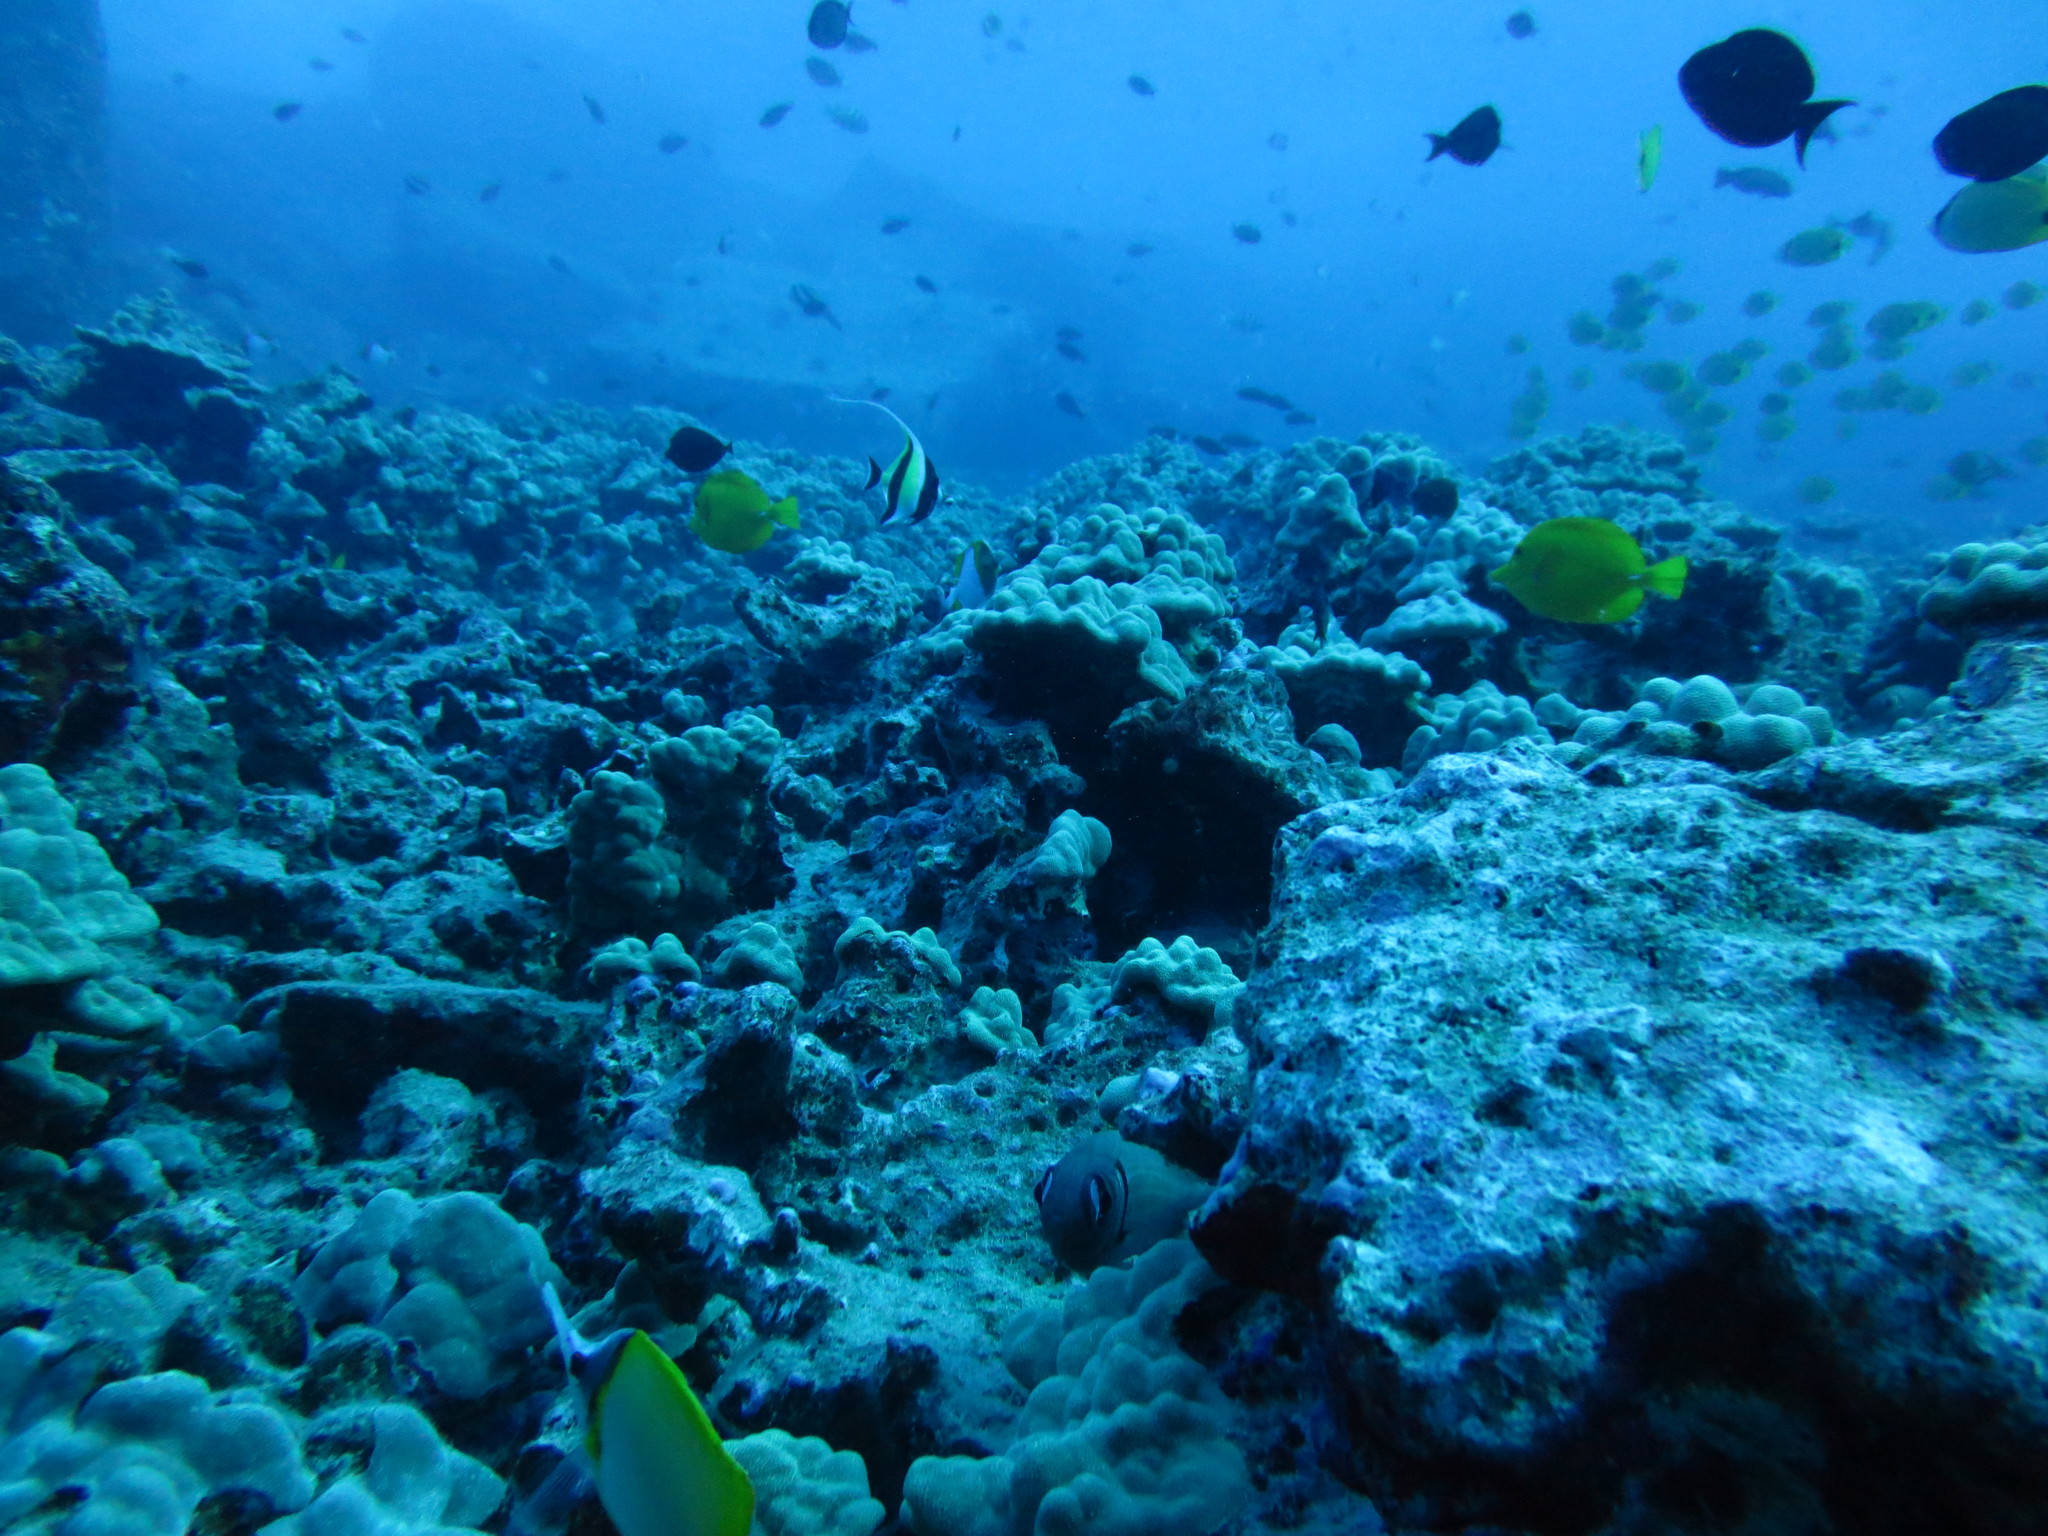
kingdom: Animalia
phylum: Chordata
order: Perciformes
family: Zanclidae
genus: Zanclus
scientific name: Zanclus cornutus
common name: Moorish idol
